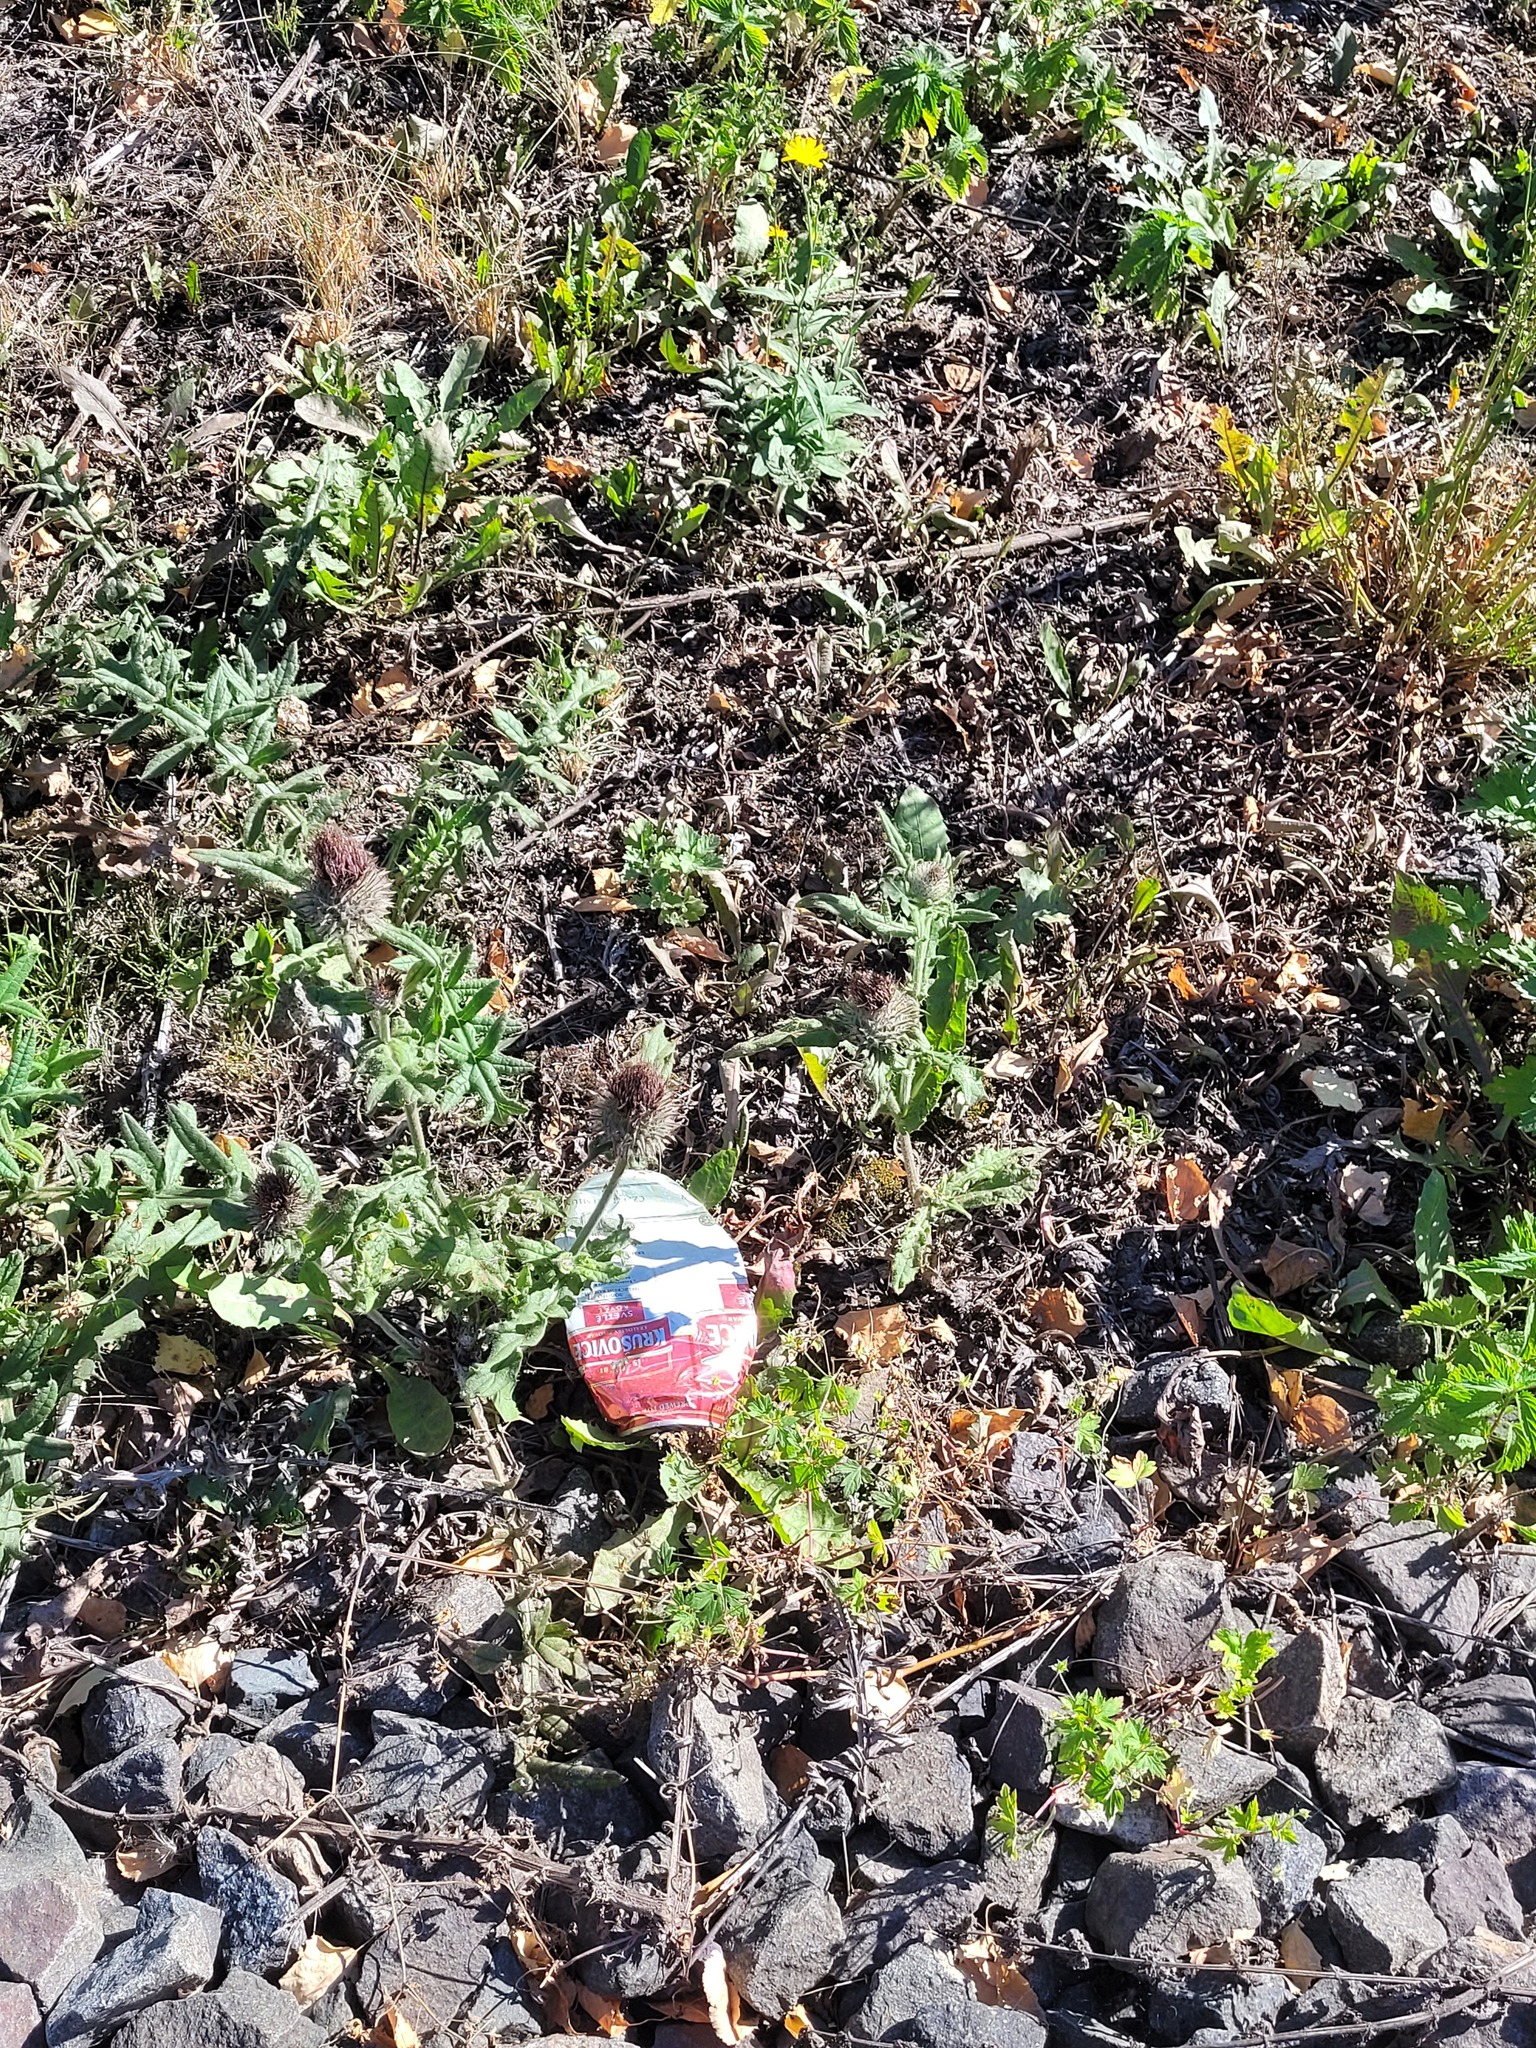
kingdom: Plantae
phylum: Tracheophyta
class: Magnoliopsida
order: Asterales
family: Asteraceae
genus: Lophiolepis
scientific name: Lophiolepis decussata
